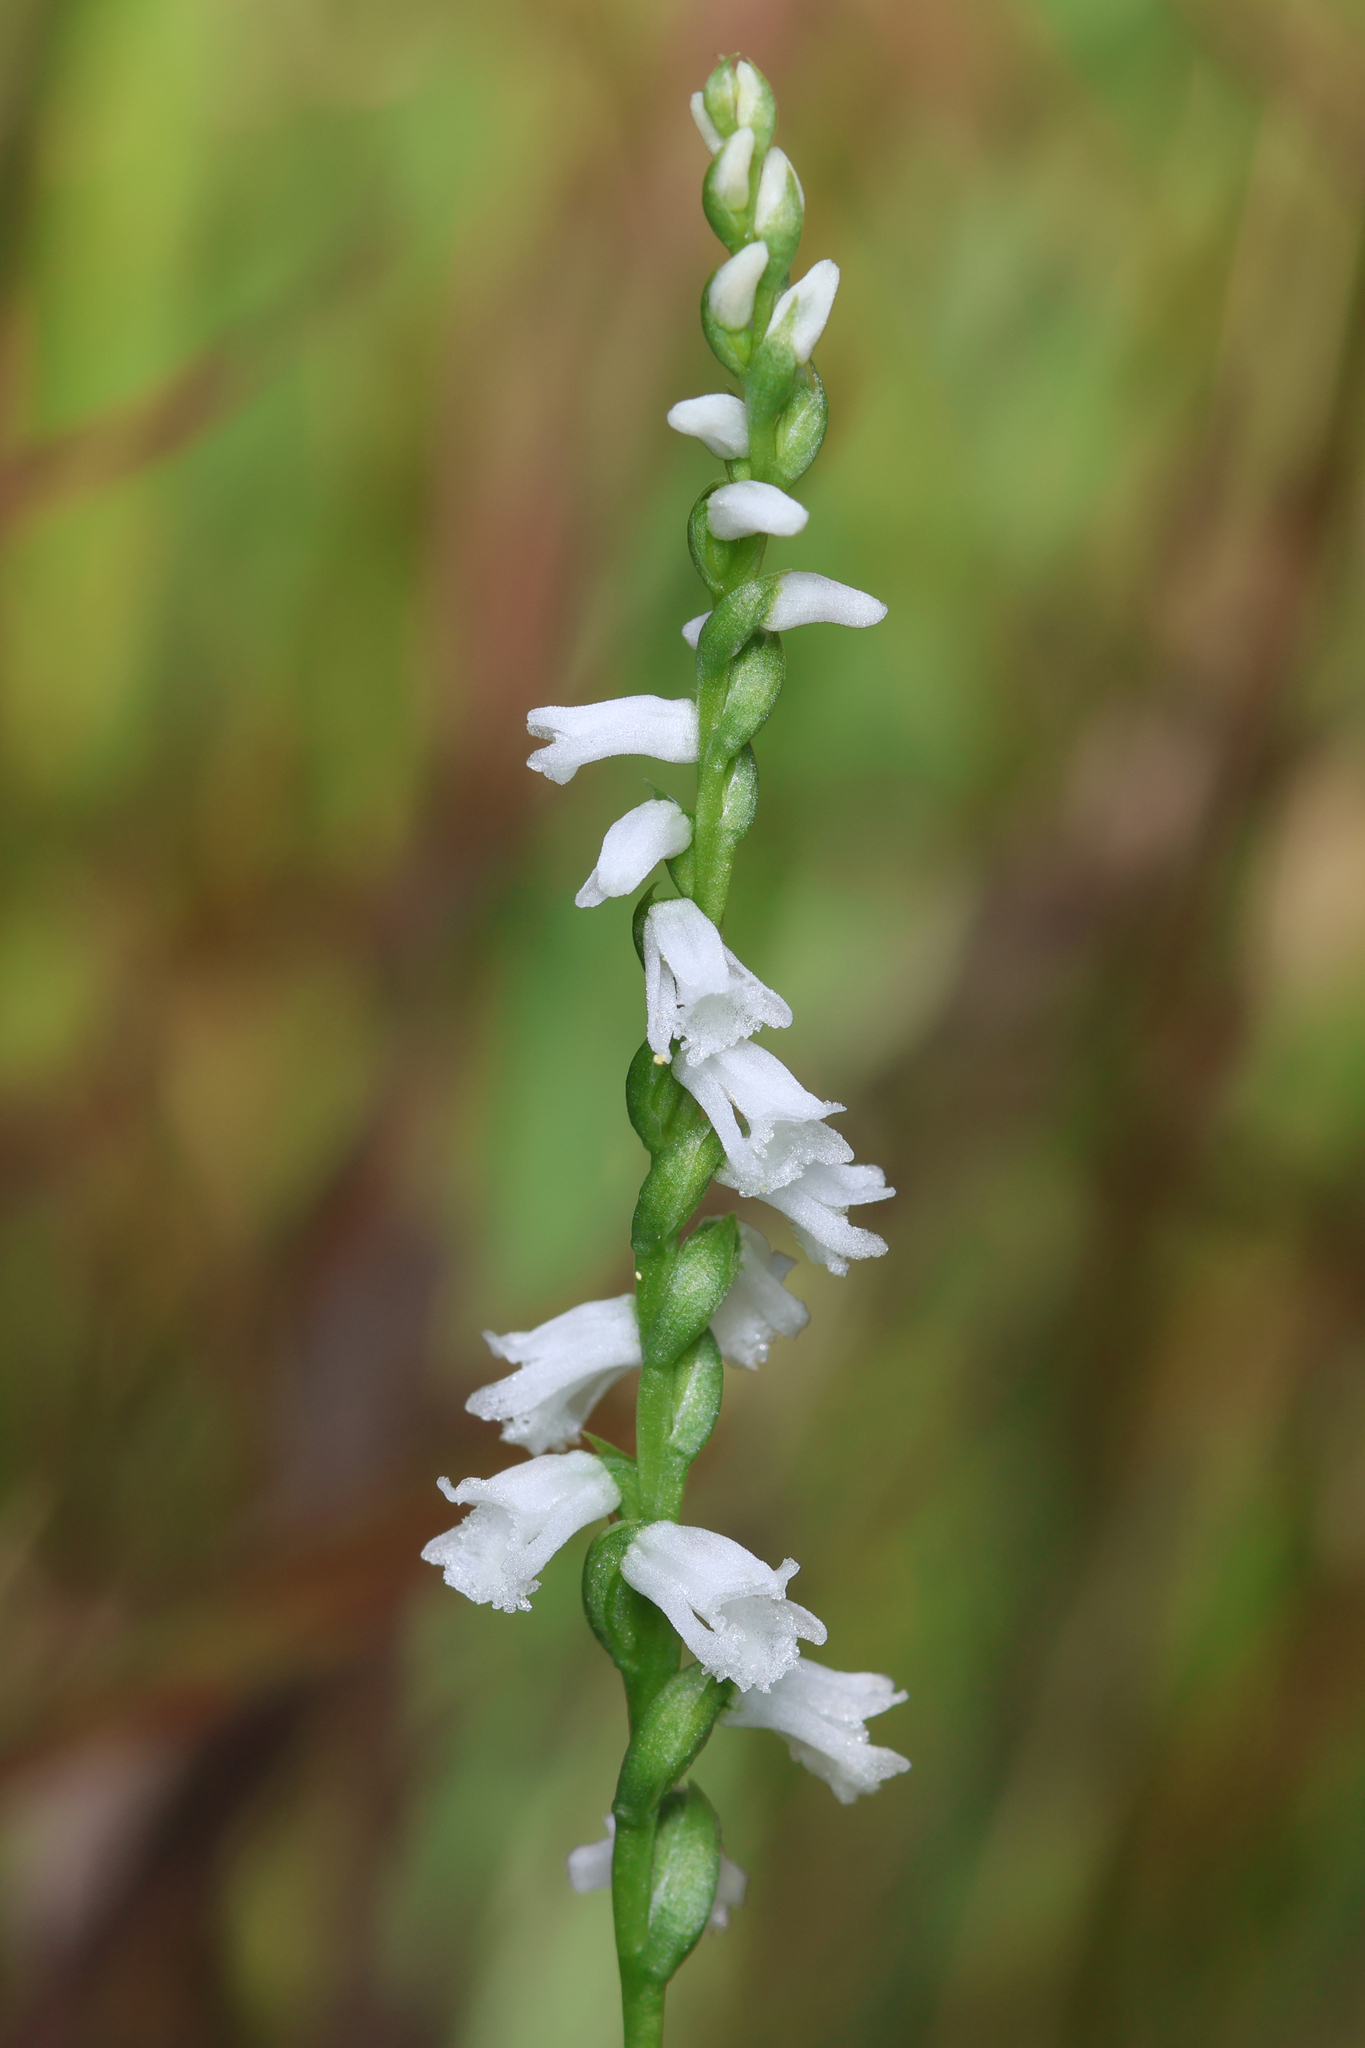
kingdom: Plantae
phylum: Tracheophyta
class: Liliopsida
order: Asparagales
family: Orchidaceae
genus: Spiranthes
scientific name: Spiranthes tuberosa
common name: Little ladies'-tresses
